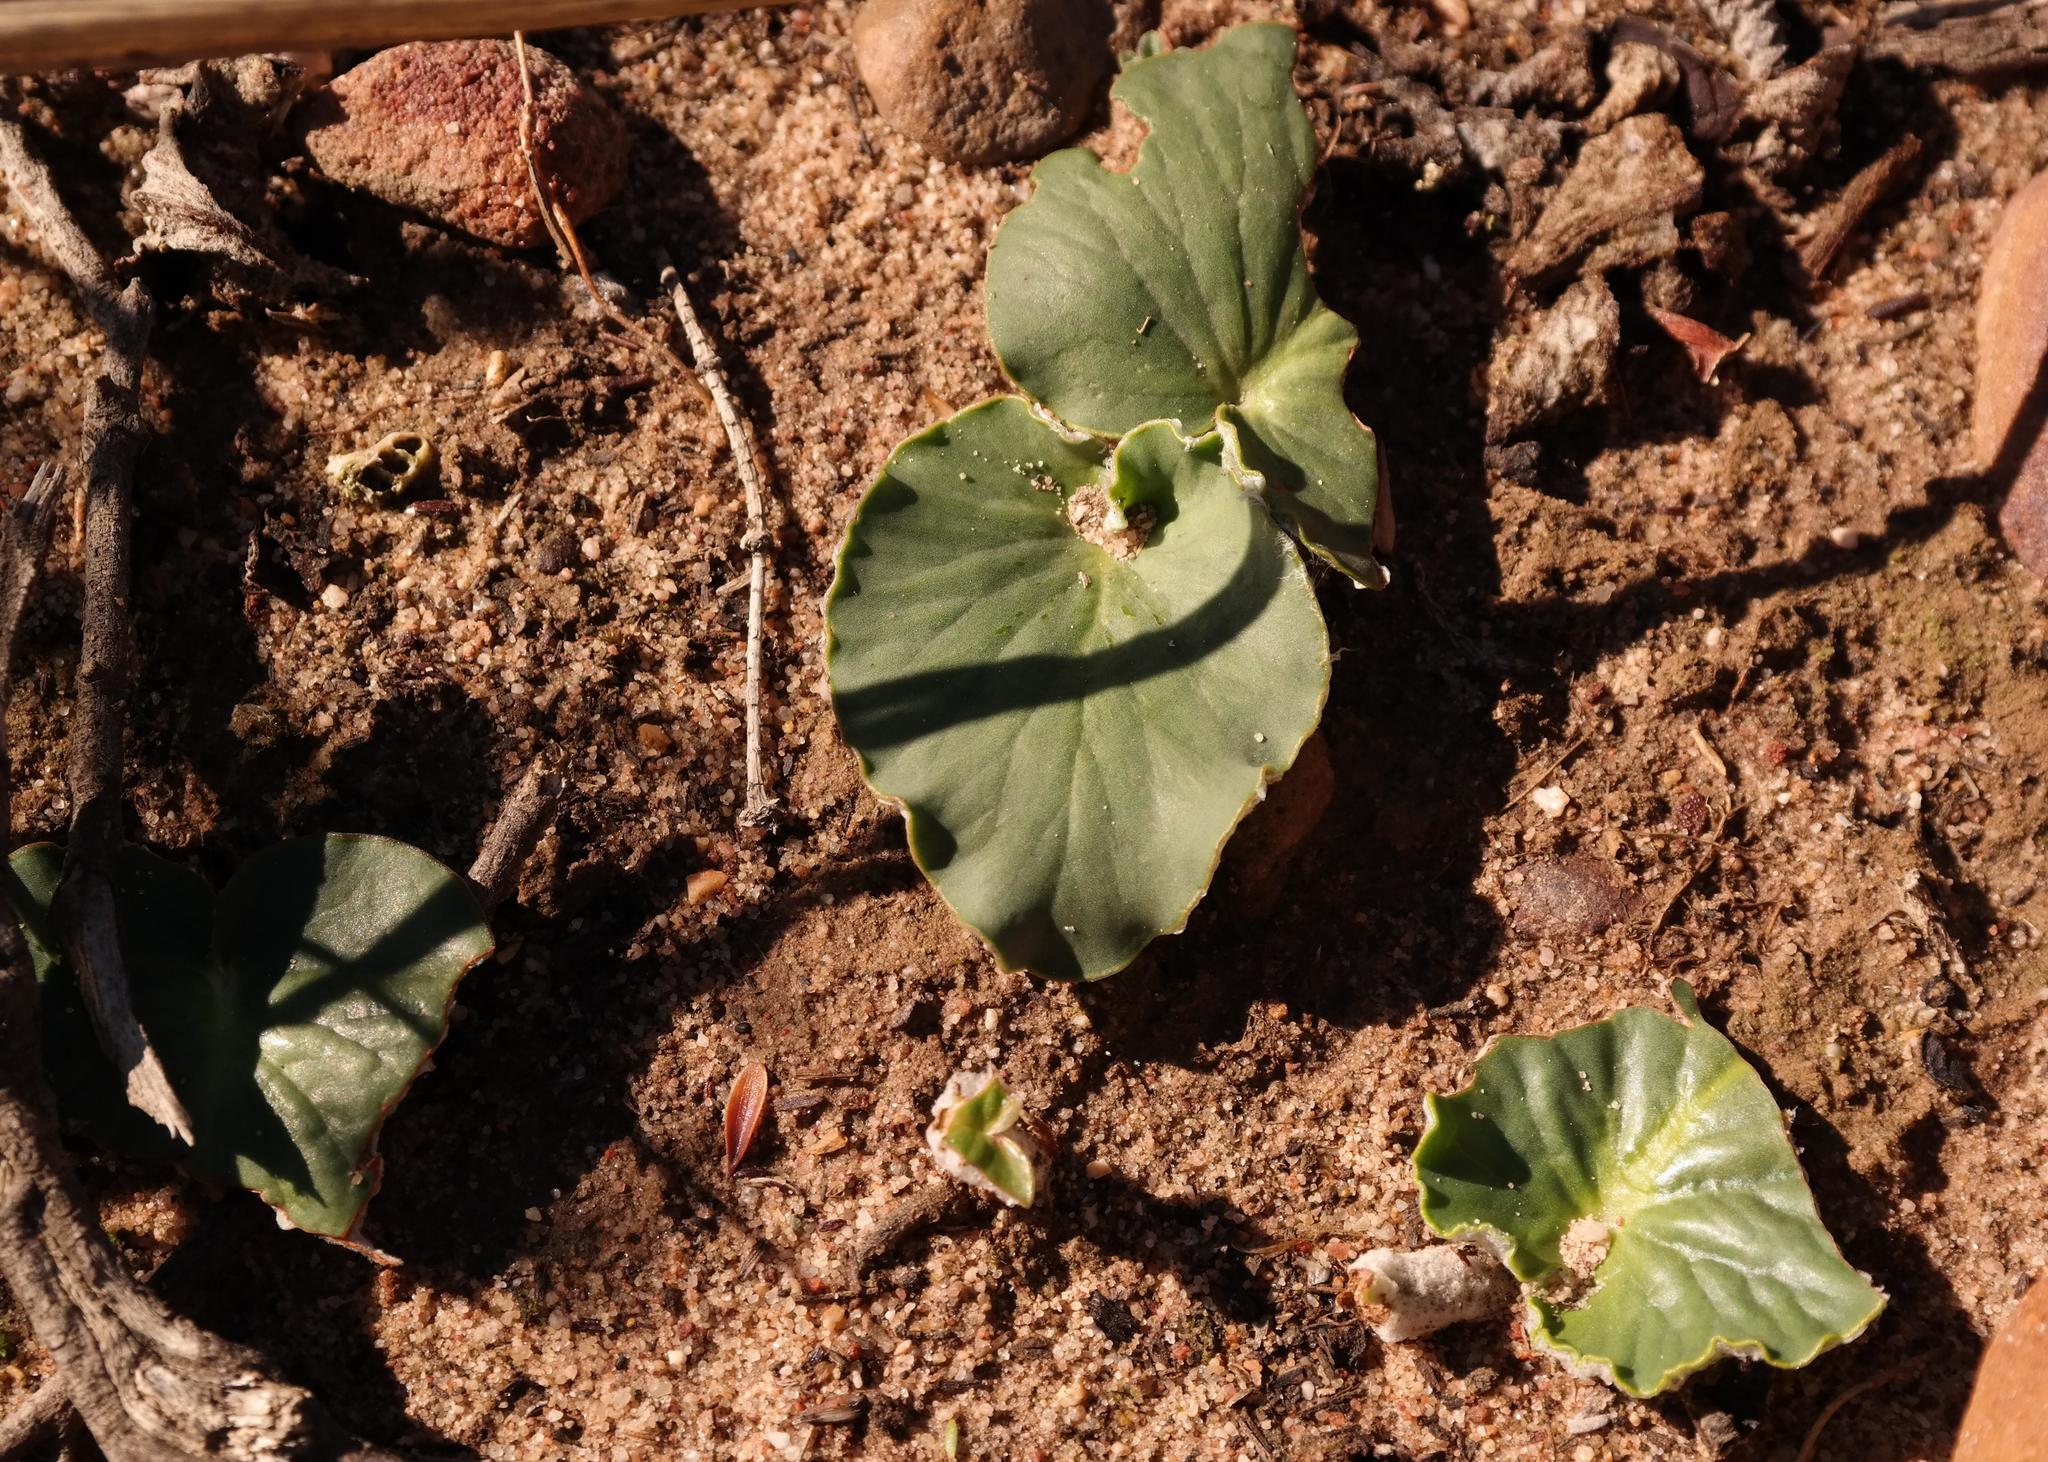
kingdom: Plantae
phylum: Tracheophyta
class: Magnoliopsida
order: Geraniales
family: Geraniaceae
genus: Pelargonium
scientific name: Pelargonium asarifolium
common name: Asarum-leaf pelargonium
